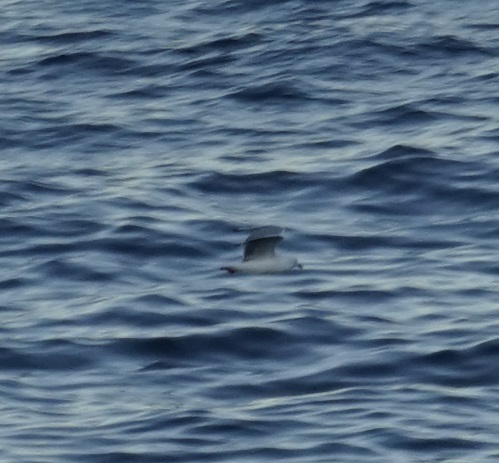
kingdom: Animalia
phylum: Chordata
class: Aves
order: Charadriiformes
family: Laridae
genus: Chroicocephalus
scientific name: Chroicocephalus novaehollandiae
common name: Silver gull
